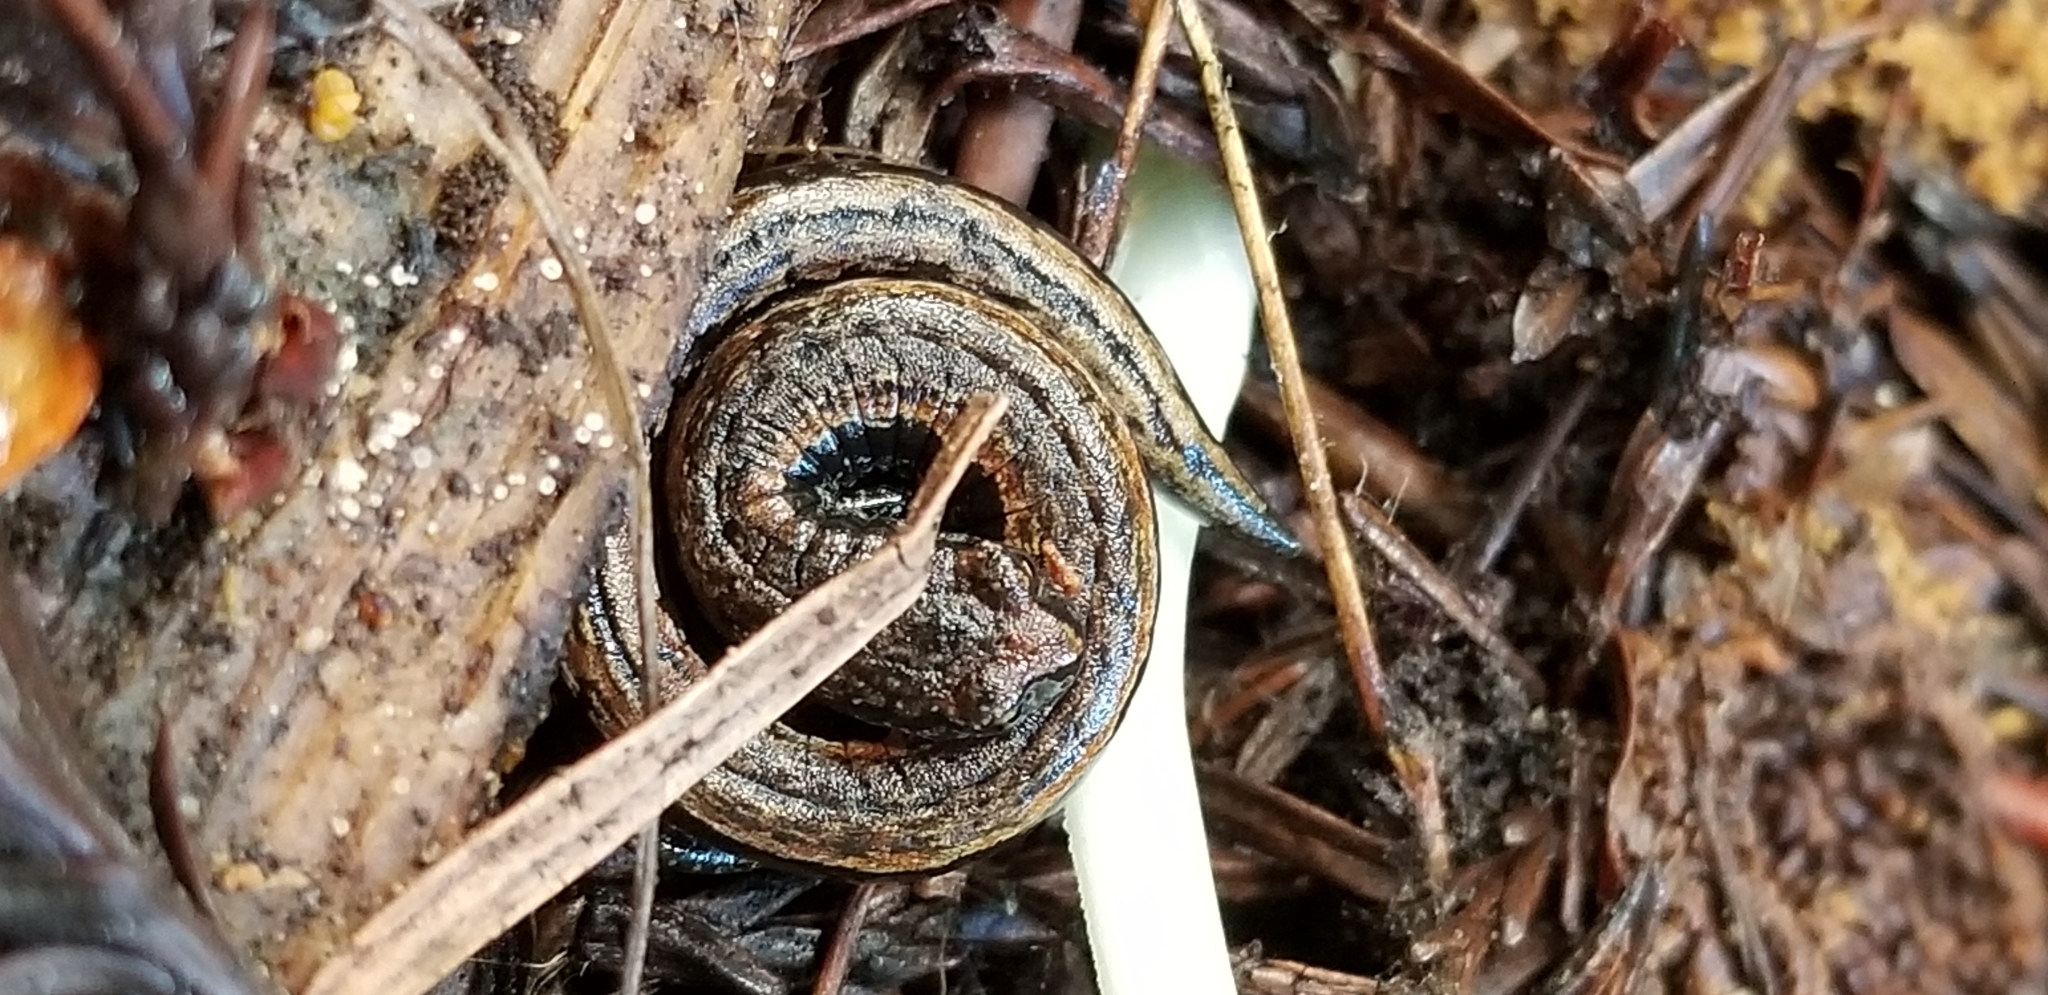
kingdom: Animalia
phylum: Chordata
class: Amphibia
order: Caudata
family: Plethodontidae
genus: Batrachoseps
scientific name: Batrachoseps attenuatus
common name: California slender salamander
